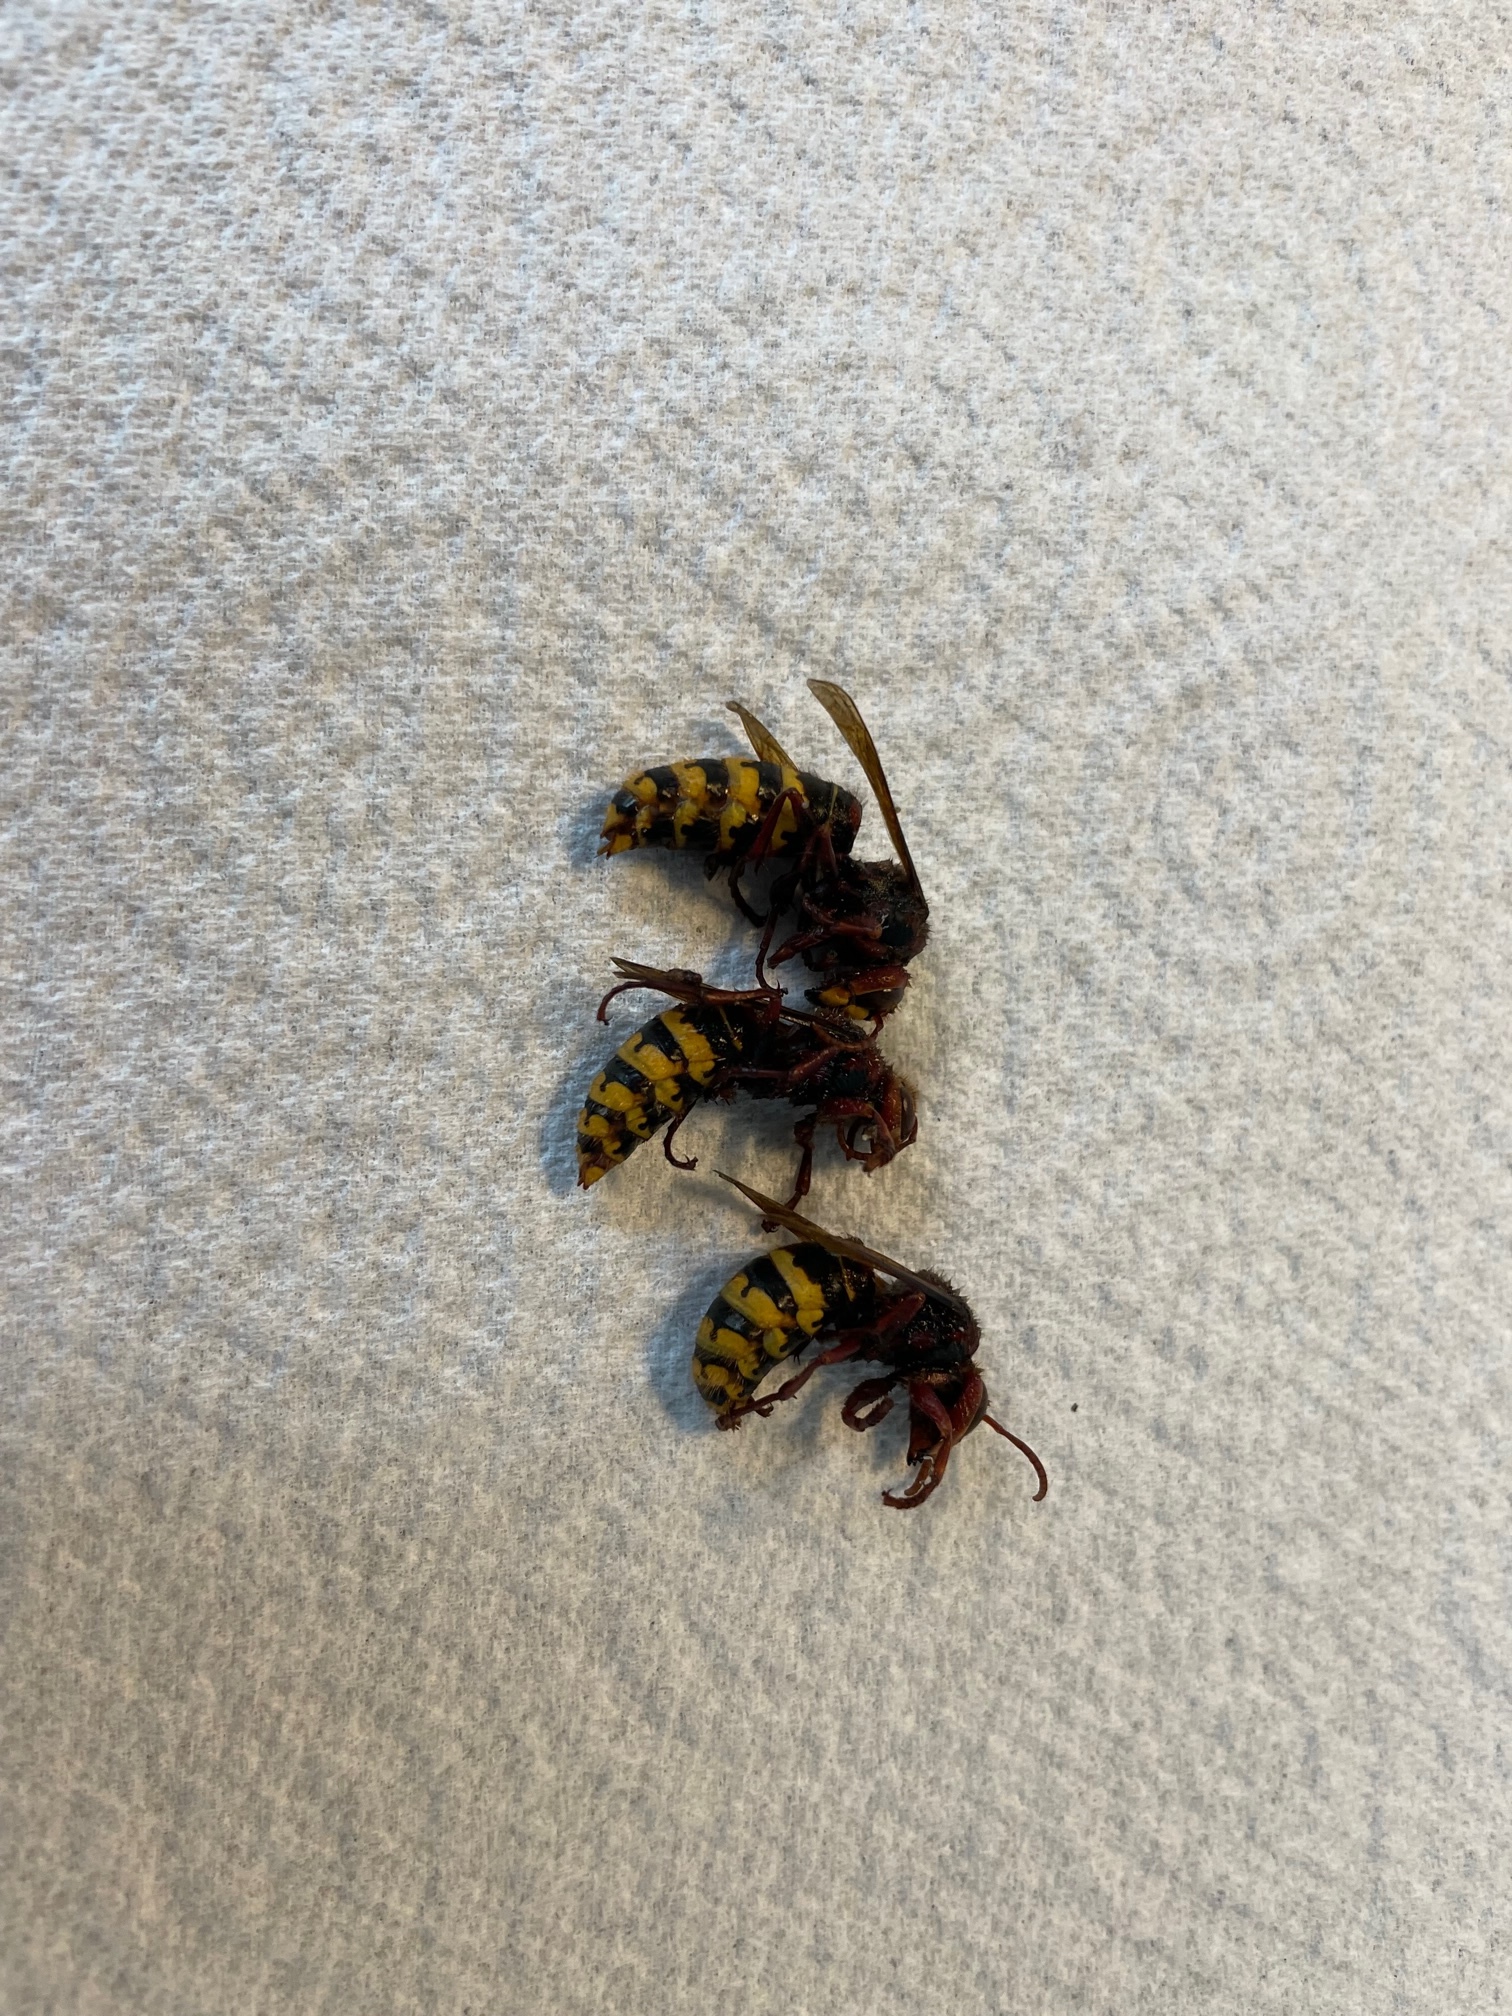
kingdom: Animalia
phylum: Arthropoda
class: Insecta
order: Hymenoptera
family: Vespidae
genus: Vespa
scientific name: Vespa crabro
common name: Hornet
